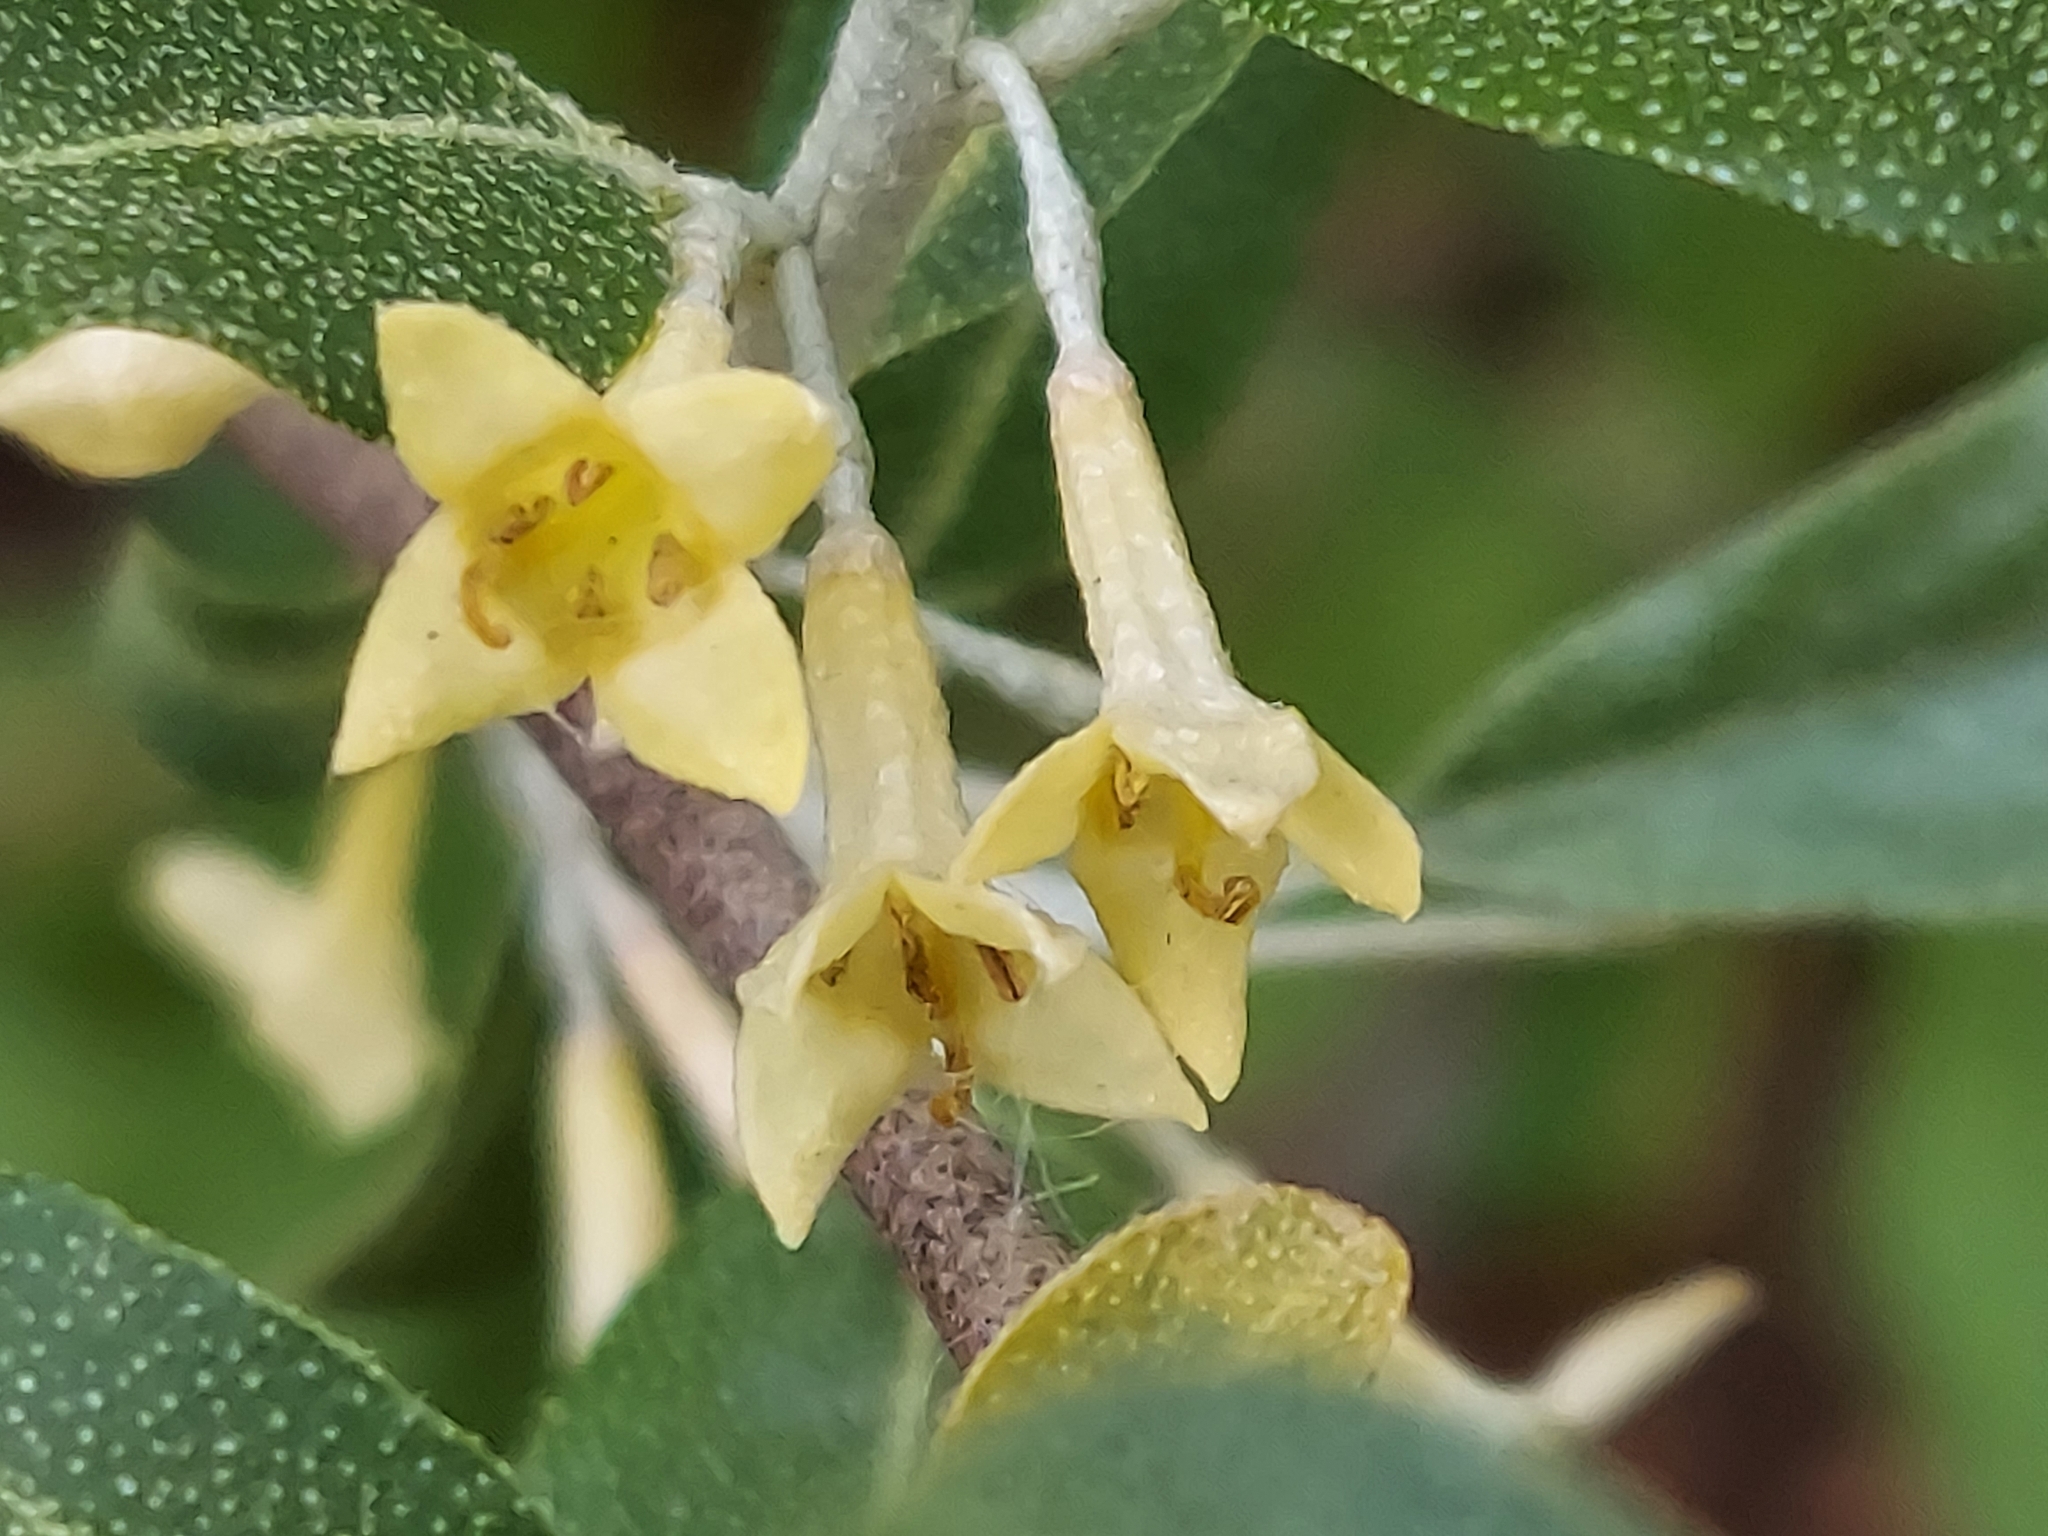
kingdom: Plantae
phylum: Tracheophyta
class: Magnoliopsida
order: Rosales
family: Elaeagnaceae
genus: Elaeagnus
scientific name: Elaeagnus umbellata
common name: Autumn olive
